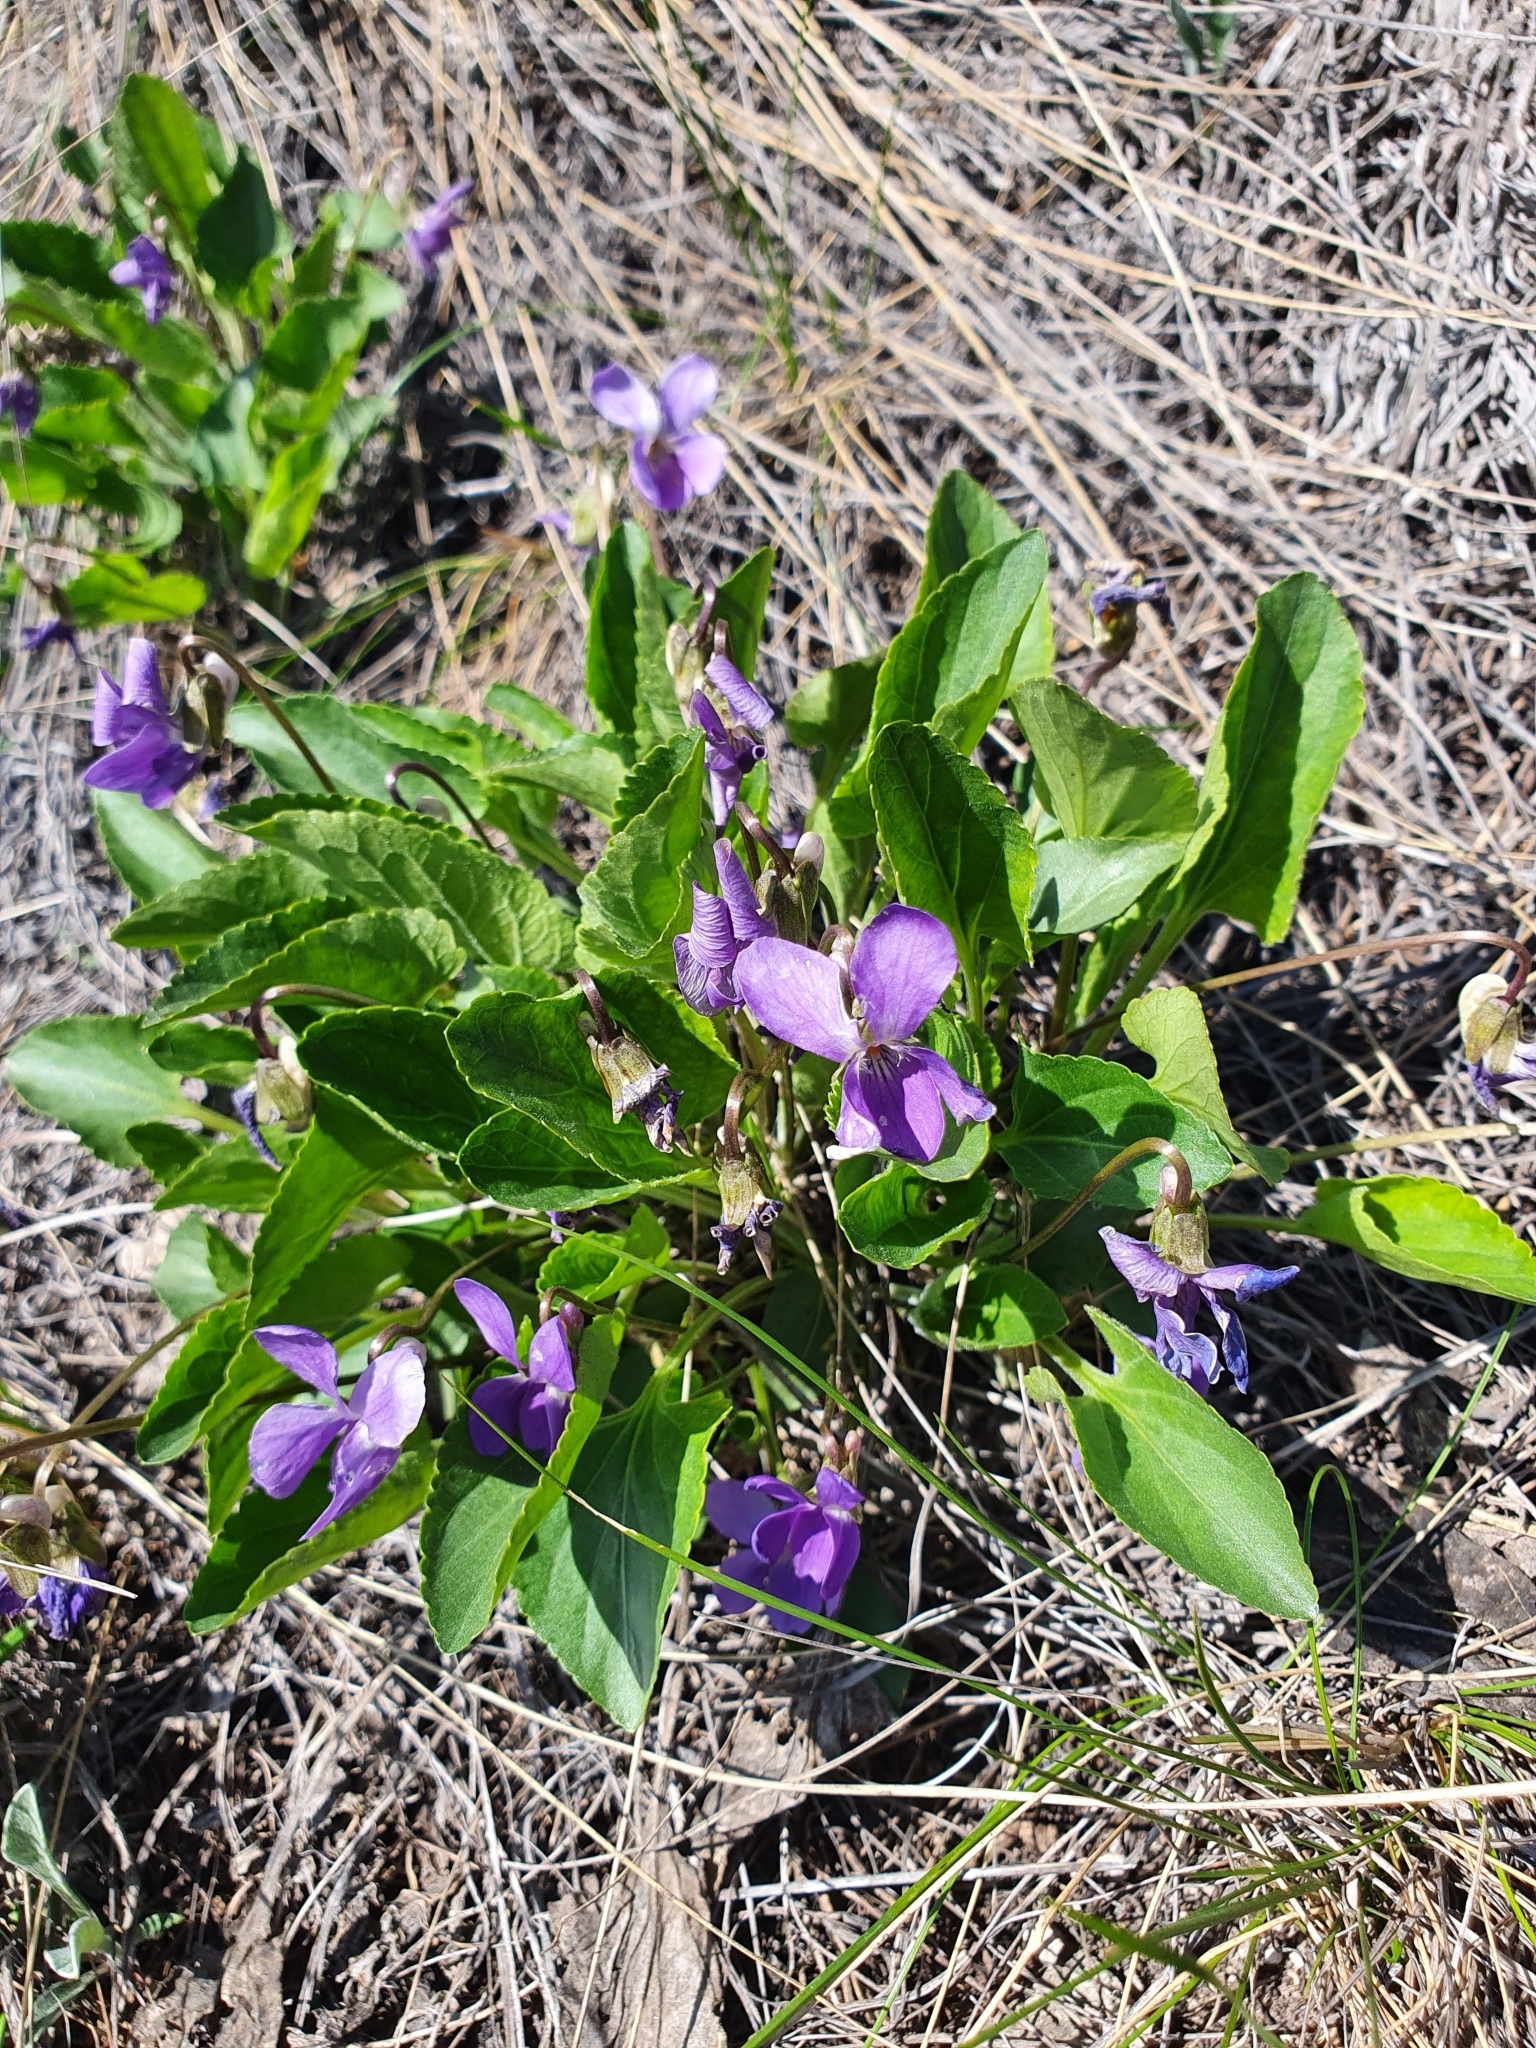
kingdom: Plantae
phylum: Tracheophyta
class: Magnoliopsida
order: Malpighiales
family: Violaceae
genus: Viola
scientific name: Viola ambigua
